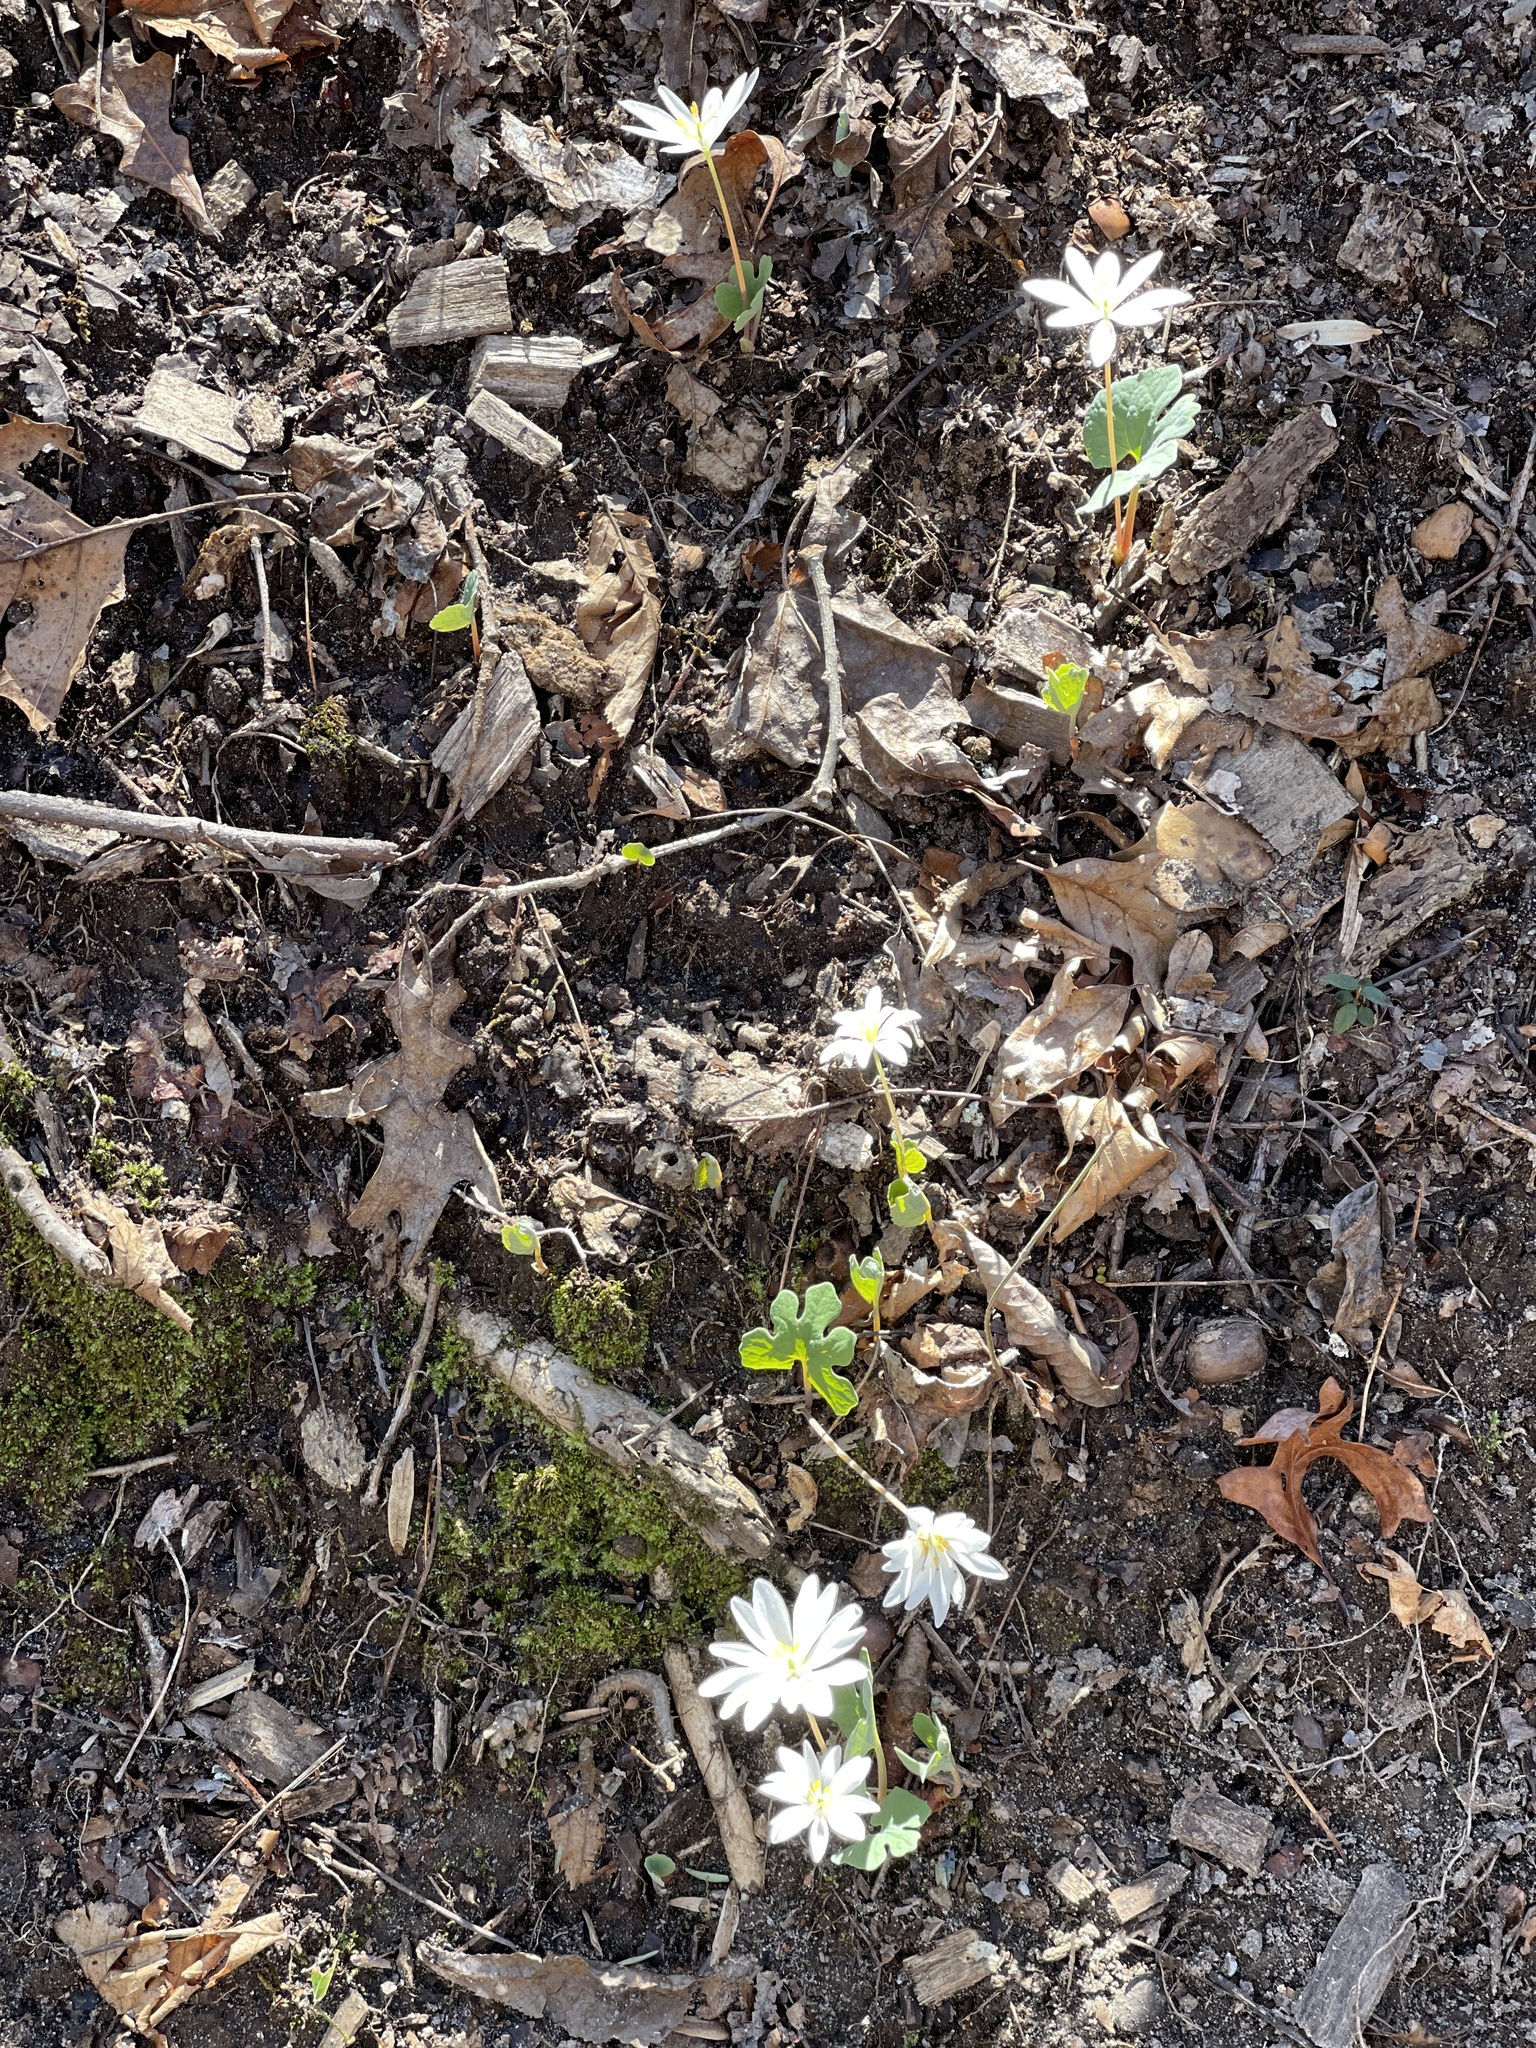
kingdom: Plantae
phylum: Tracheophyta
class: Magnoliopsida
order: Ranunculales
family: Papaveraceae
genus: Sanguinaria
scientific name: Sanguinaria canadensis
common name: Bloodroot
